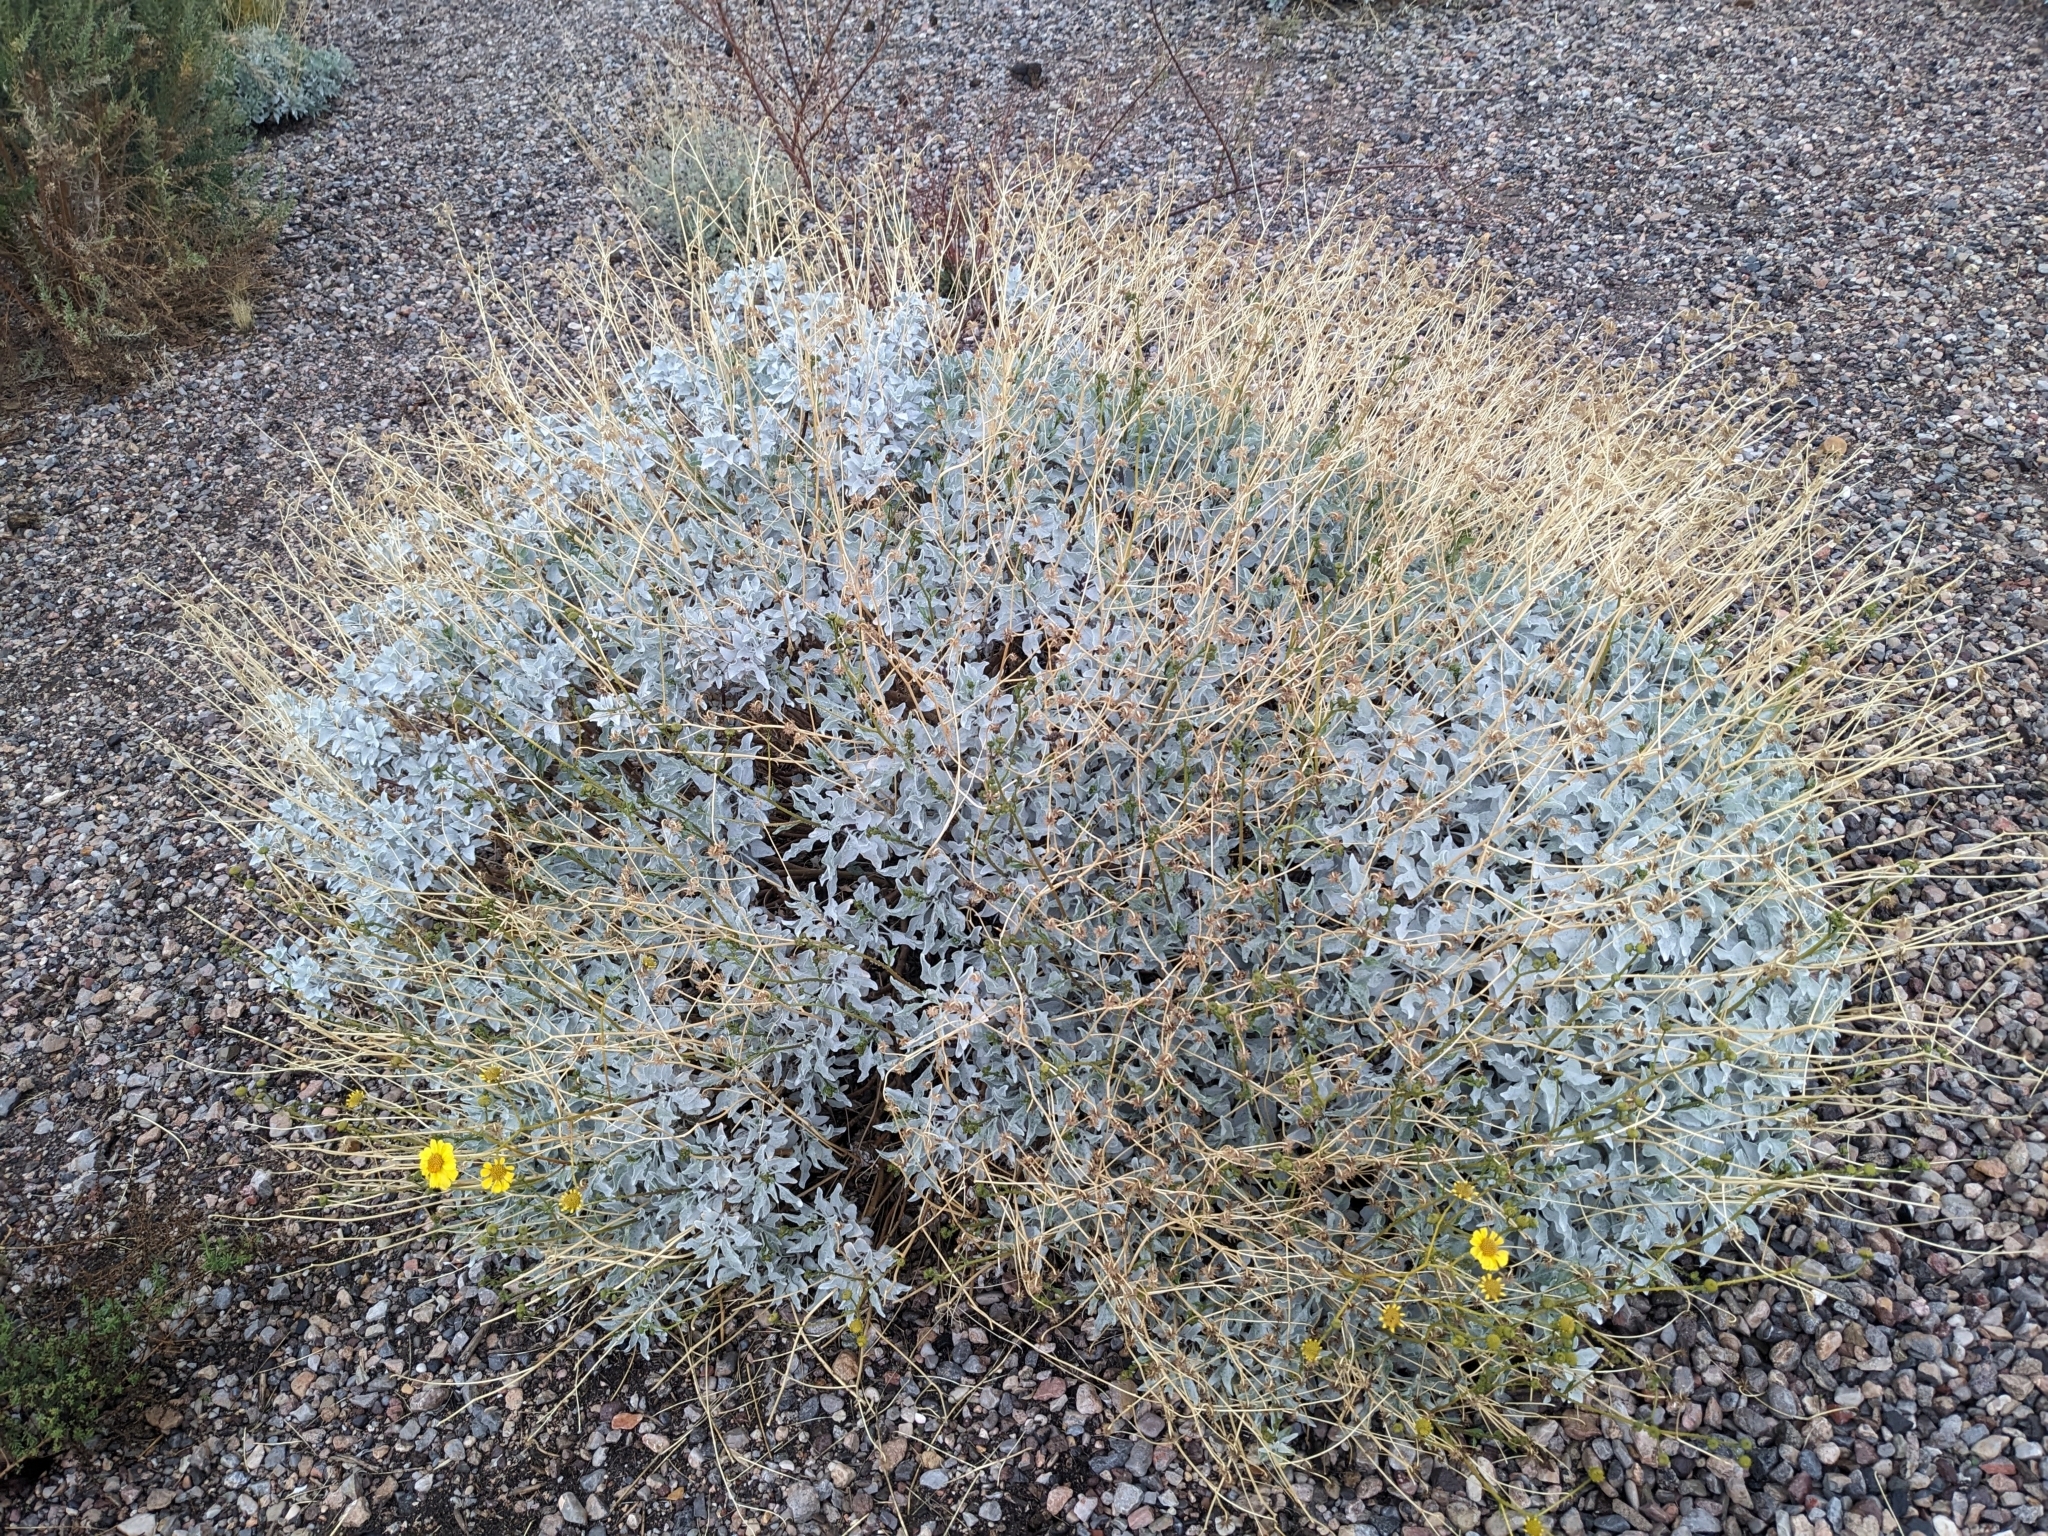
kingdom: Plantae
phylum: Tracheophyta
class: Magnoliopsida
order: Asterales
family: Asteraceae
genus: Encelia
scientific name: Encelia farinosa
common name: Brittlebush
